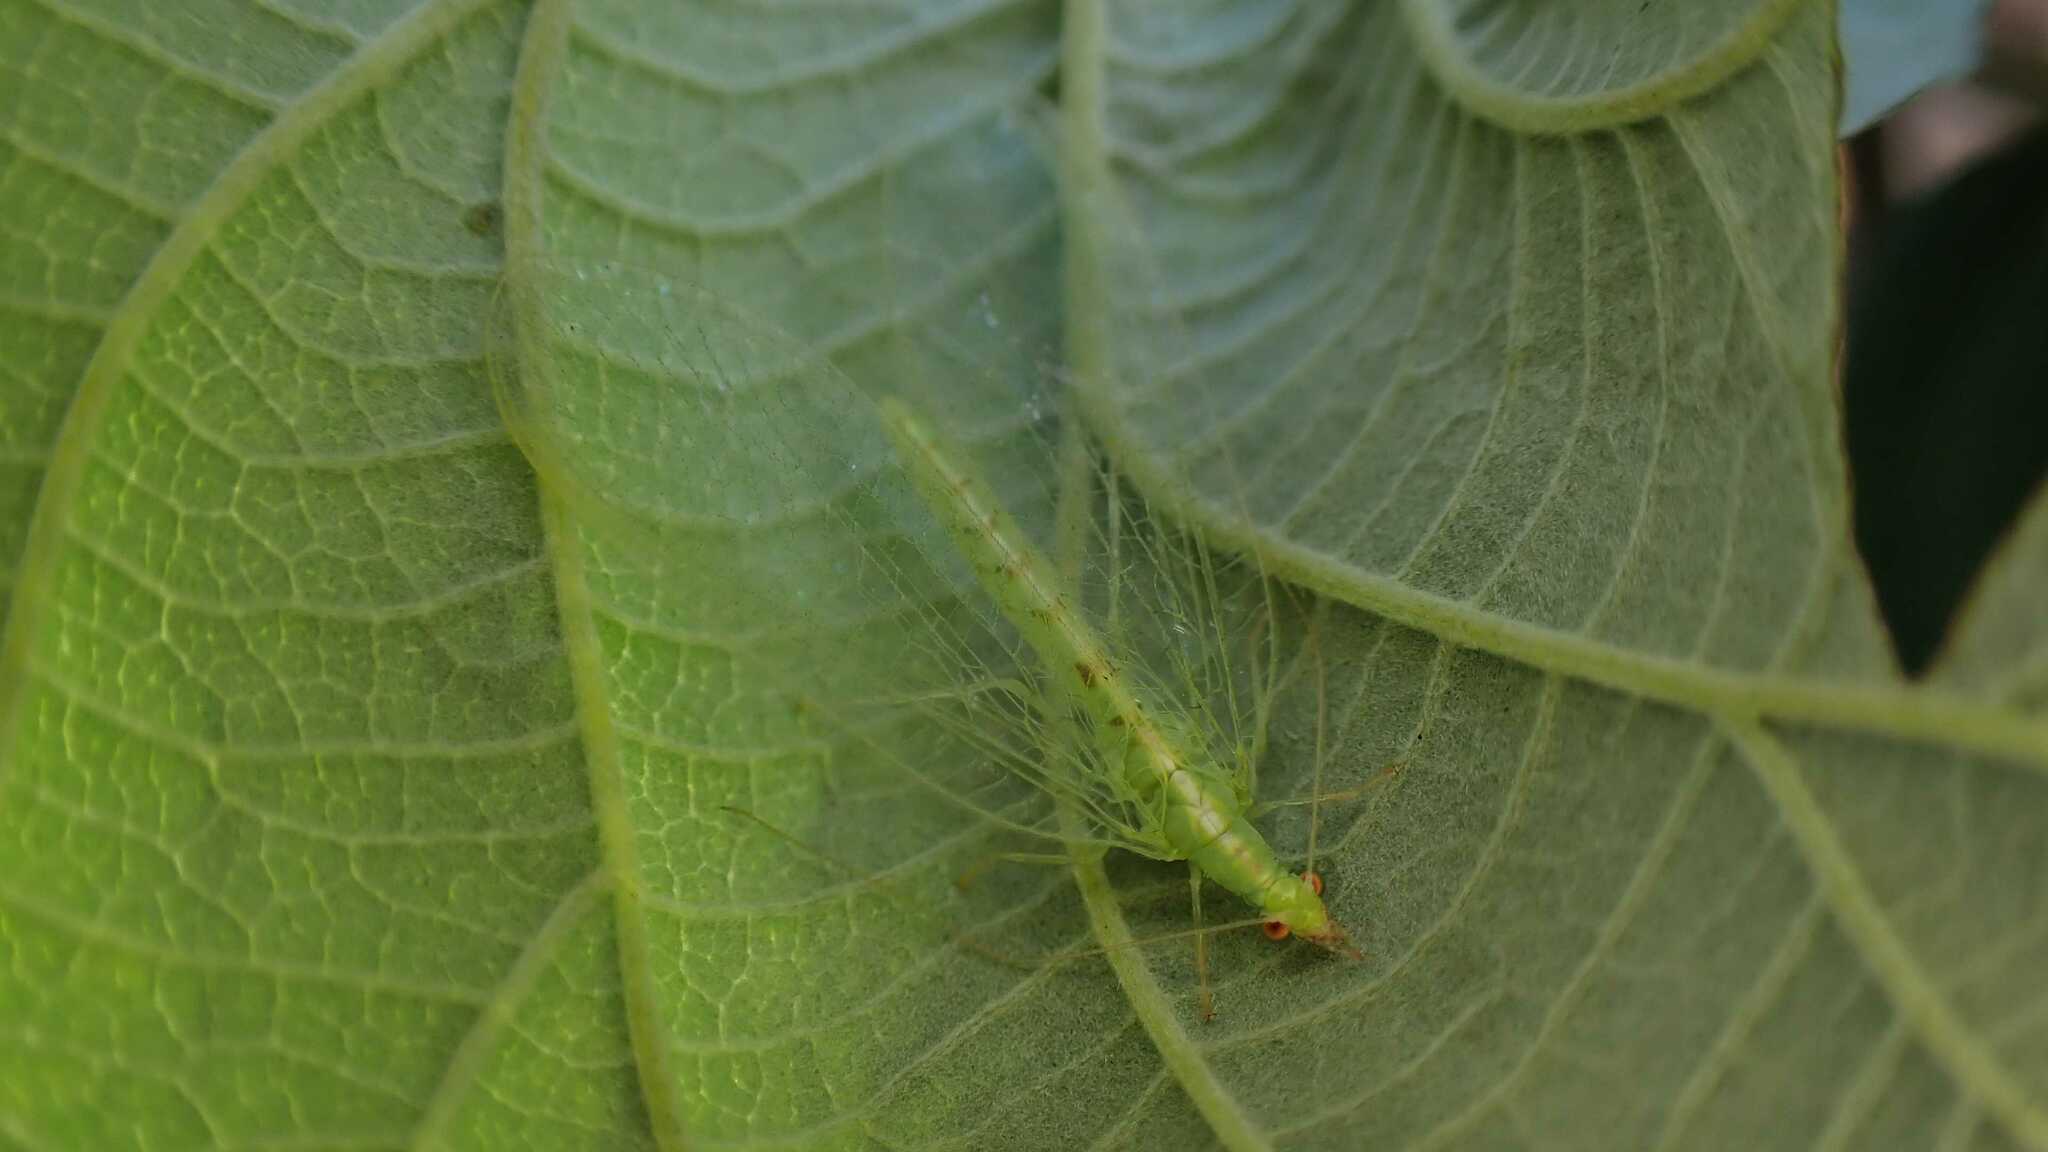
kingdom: Animalia
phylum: Arthropoda
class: Insecta
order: Neuroptera
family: Chrysopidae
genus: Chrysoperla
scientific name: Chrysoperla
